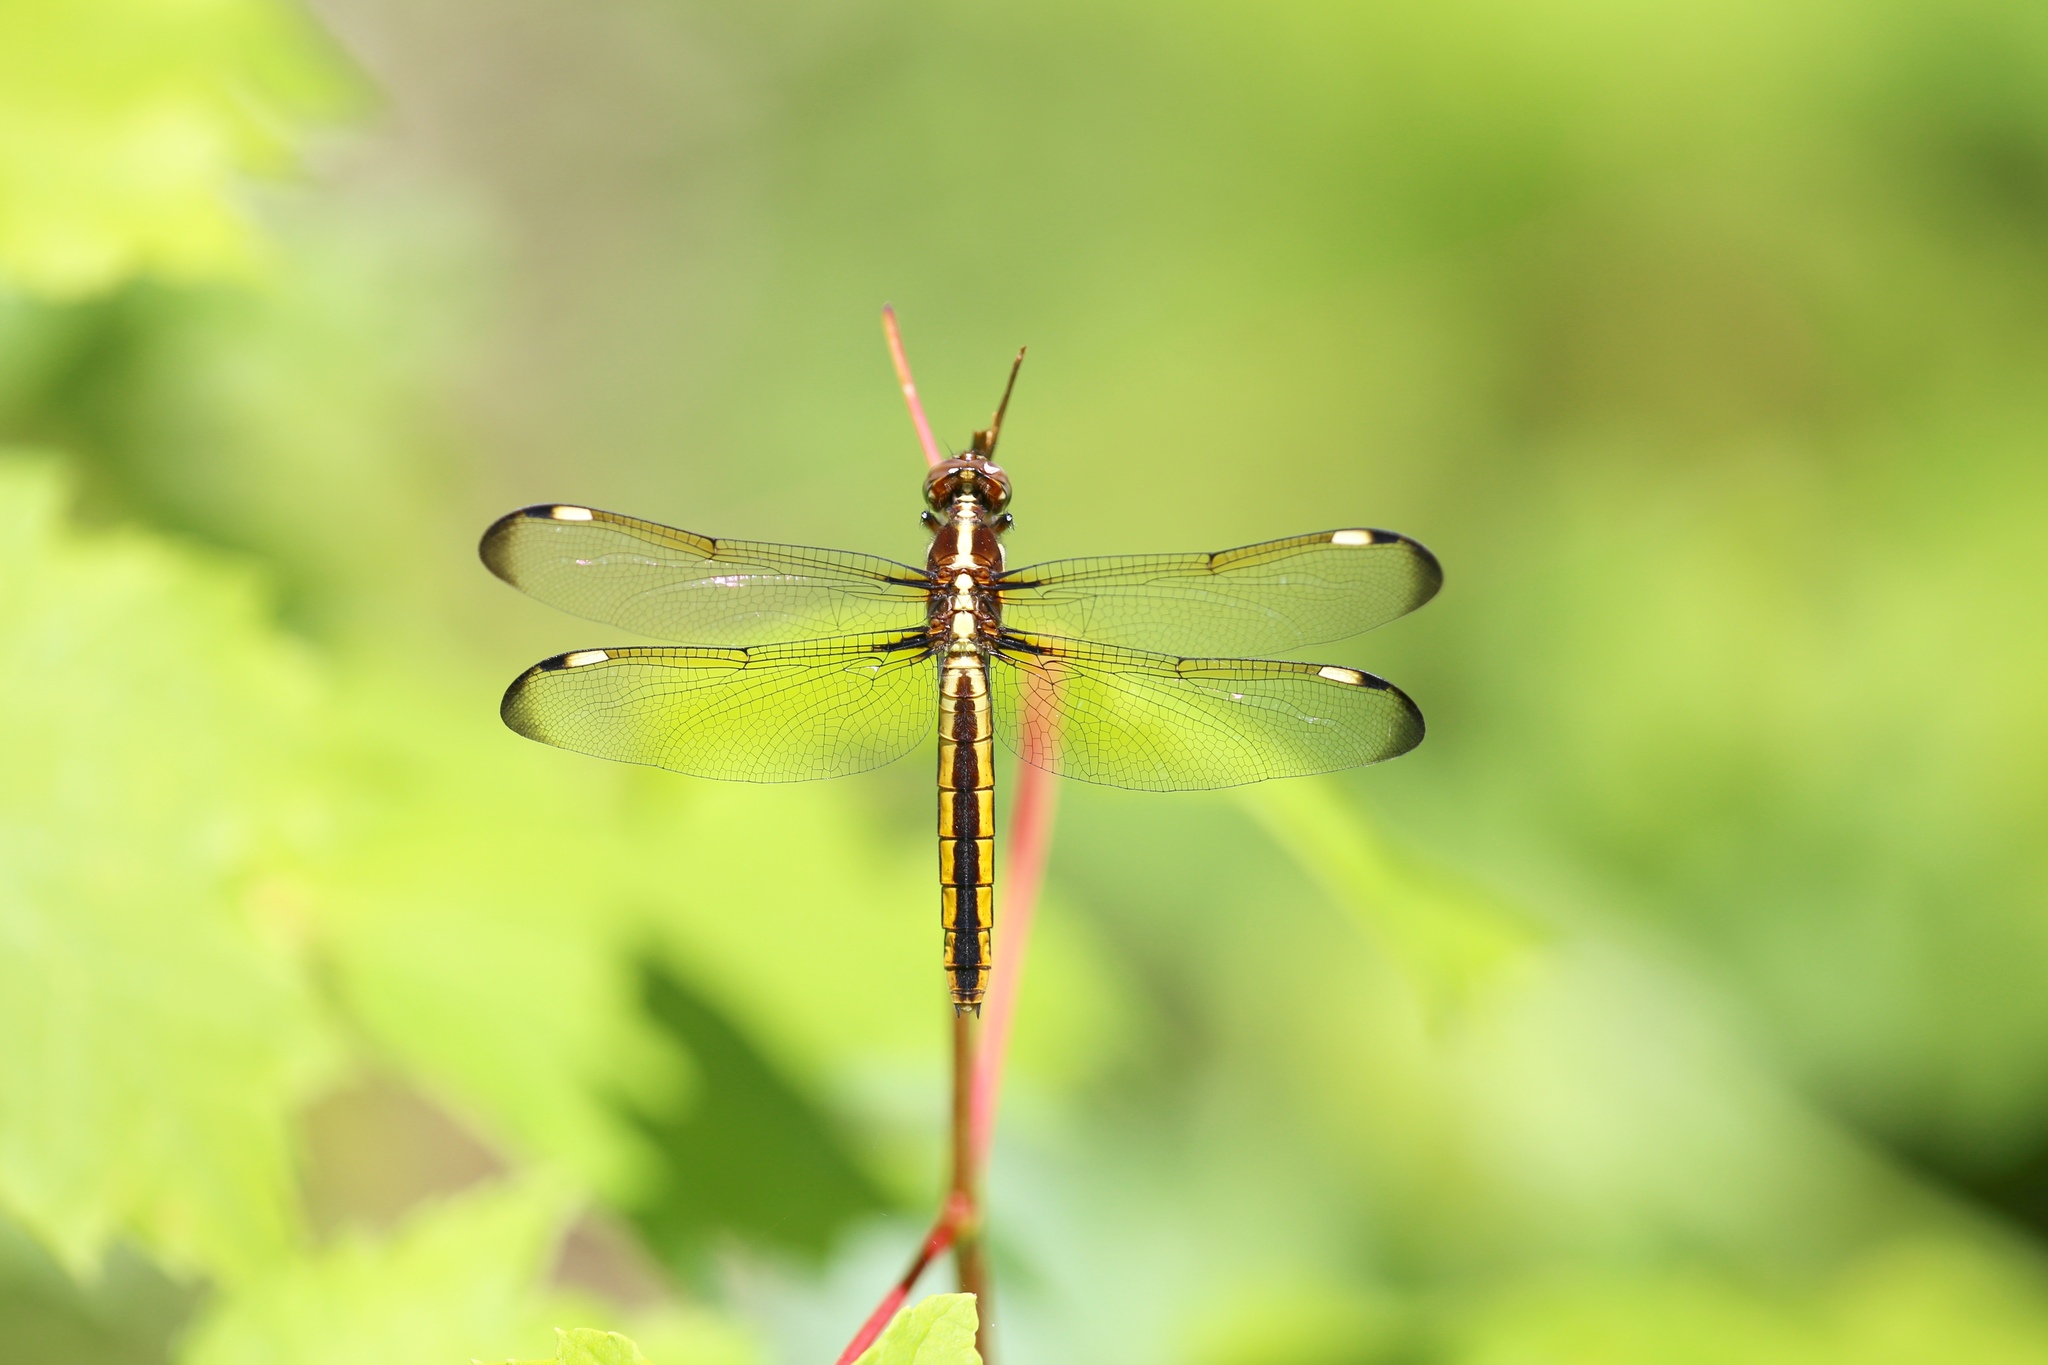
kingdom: Animalia
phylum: Arthropoda
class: Insecta
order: Odonata
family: Libellulidae
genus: Libellula
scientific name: Libellula cyanea
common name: Spangled skimmer
